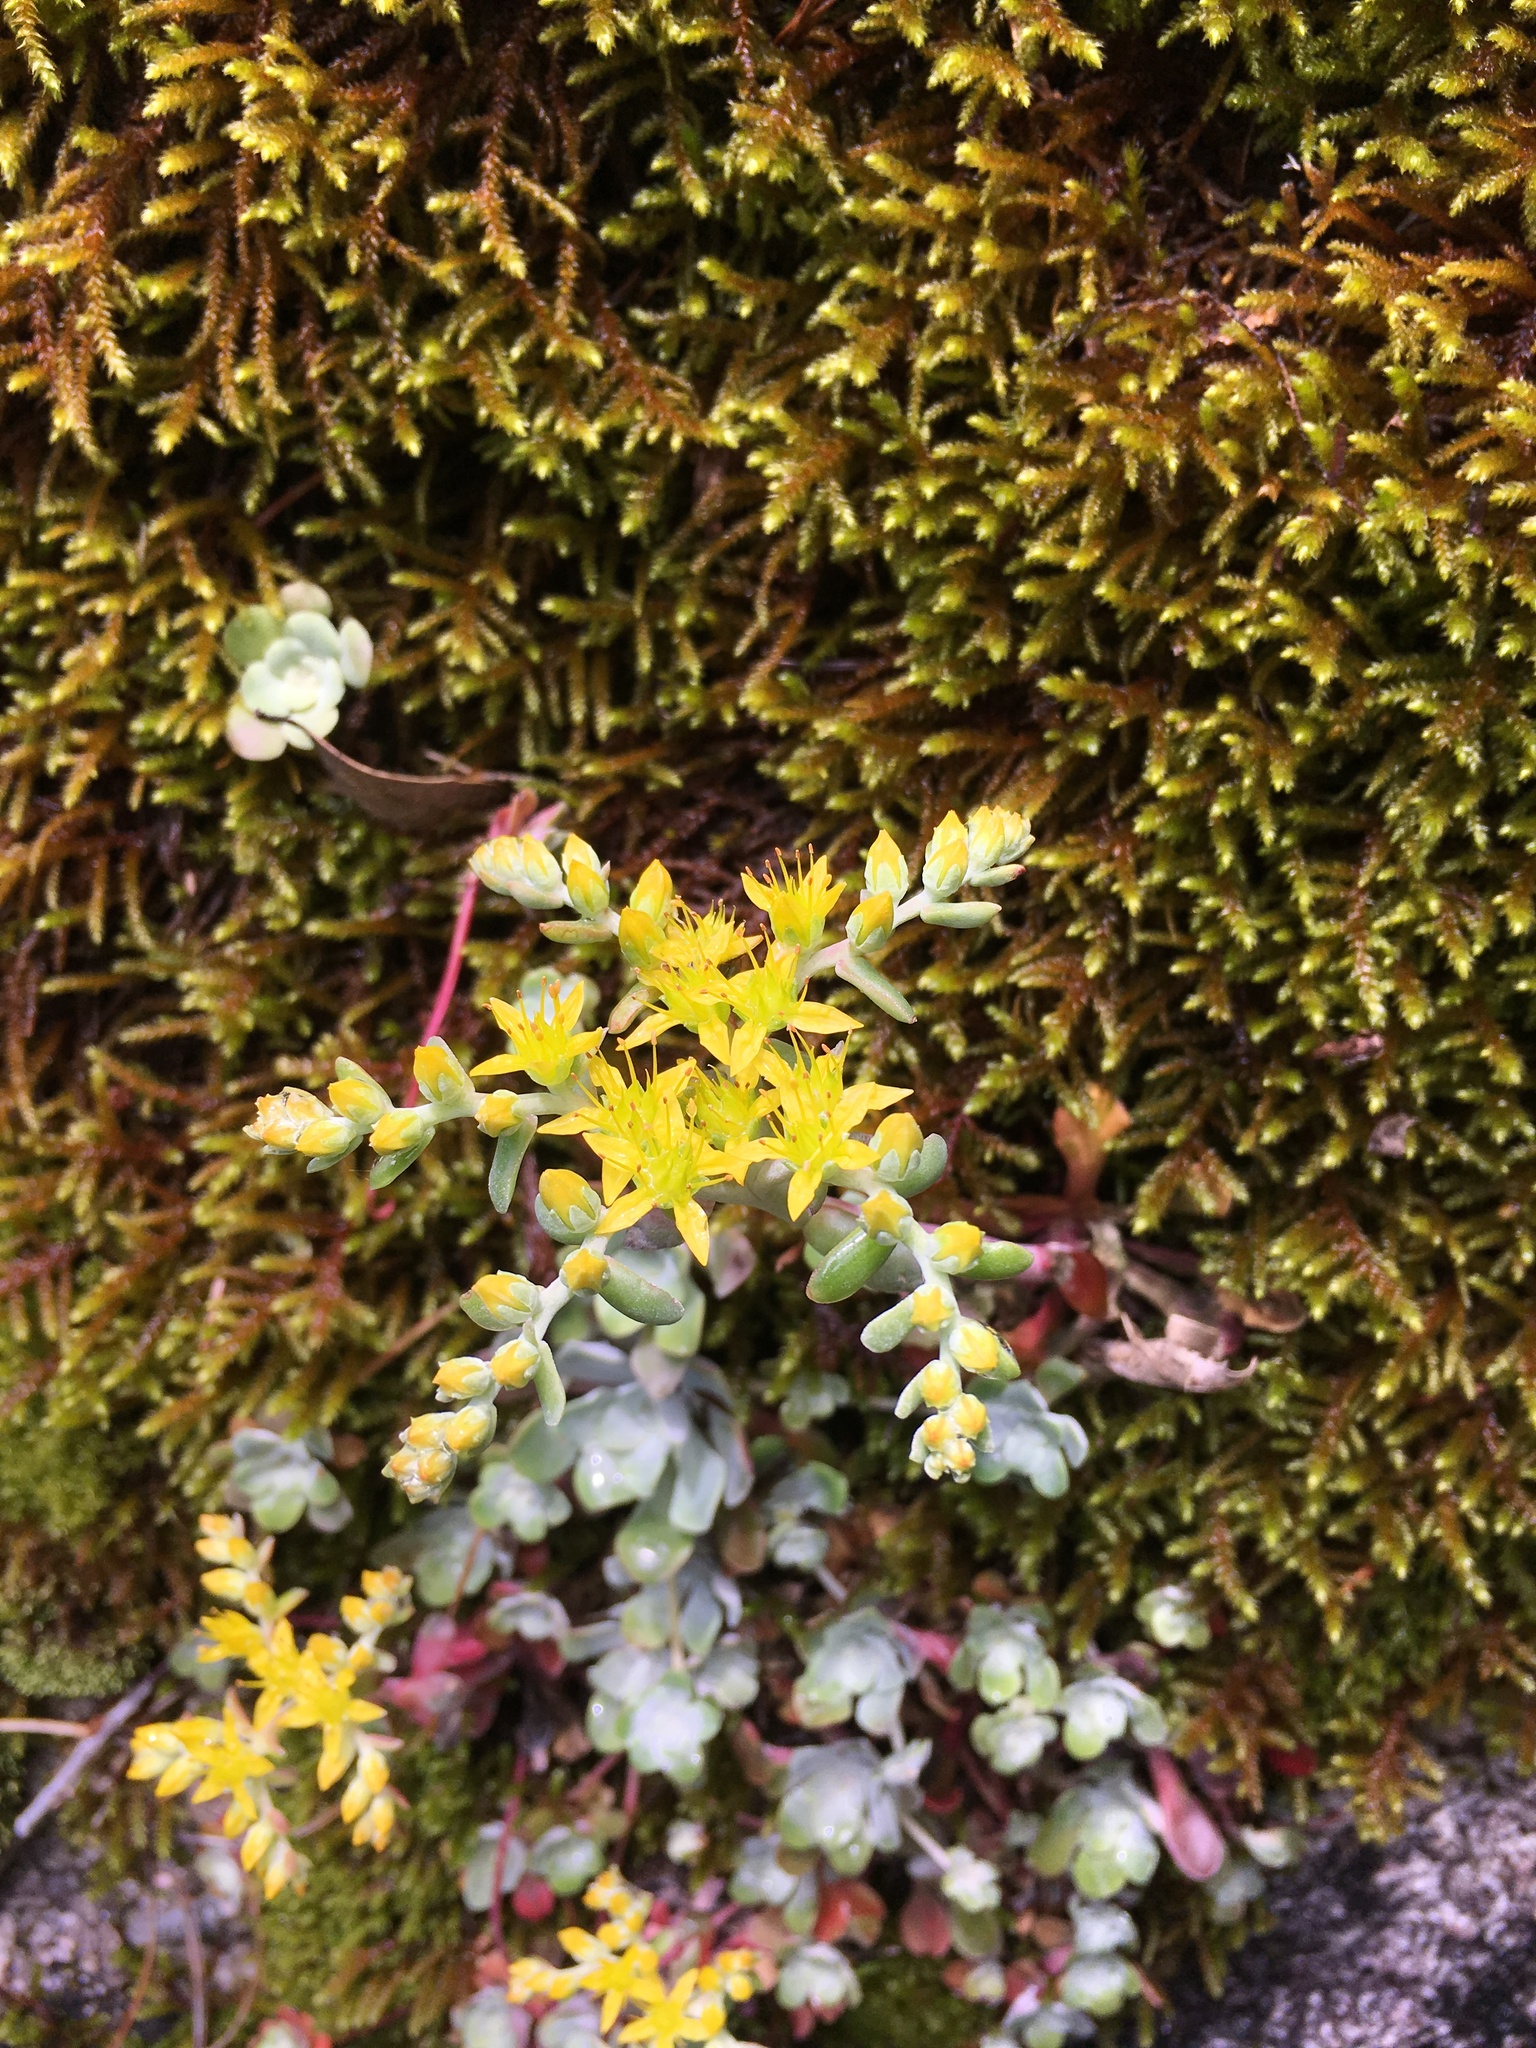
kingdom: Plantae
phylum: Tracheophyta
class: Magnoliopsida
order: Saxifragales
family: Crassulaceae
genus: Sedum
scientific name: Sedum spathulifolium
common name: Colorado stonecrop
